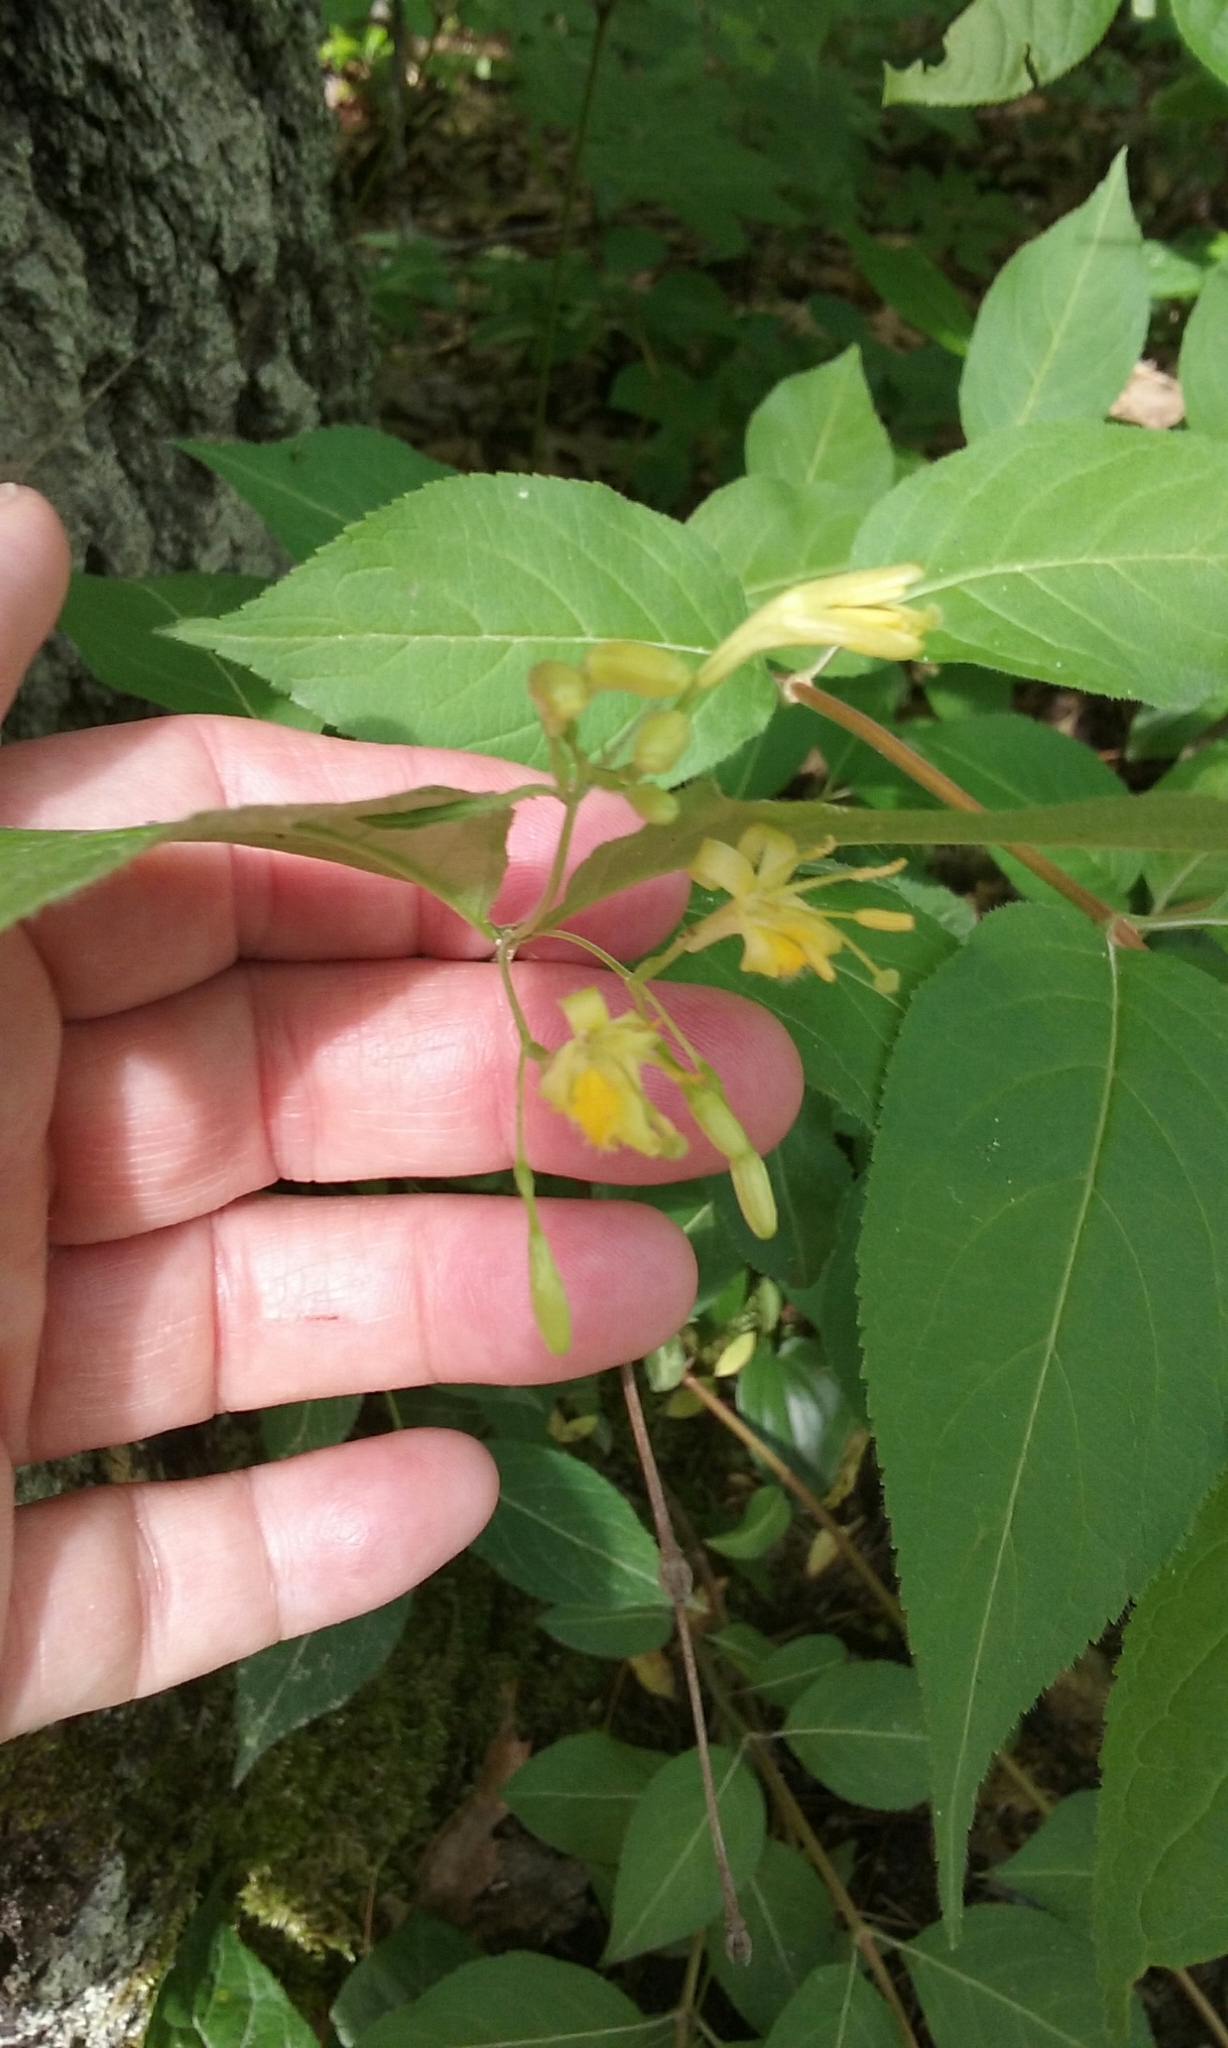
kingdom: Plantae
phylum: Tracheophyta
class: Magnoliopsida
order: Dipsacales
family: Caprifoliaceae
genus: Diervilla
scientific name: Diervilla lonicera
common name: Bush-honeysuckle
